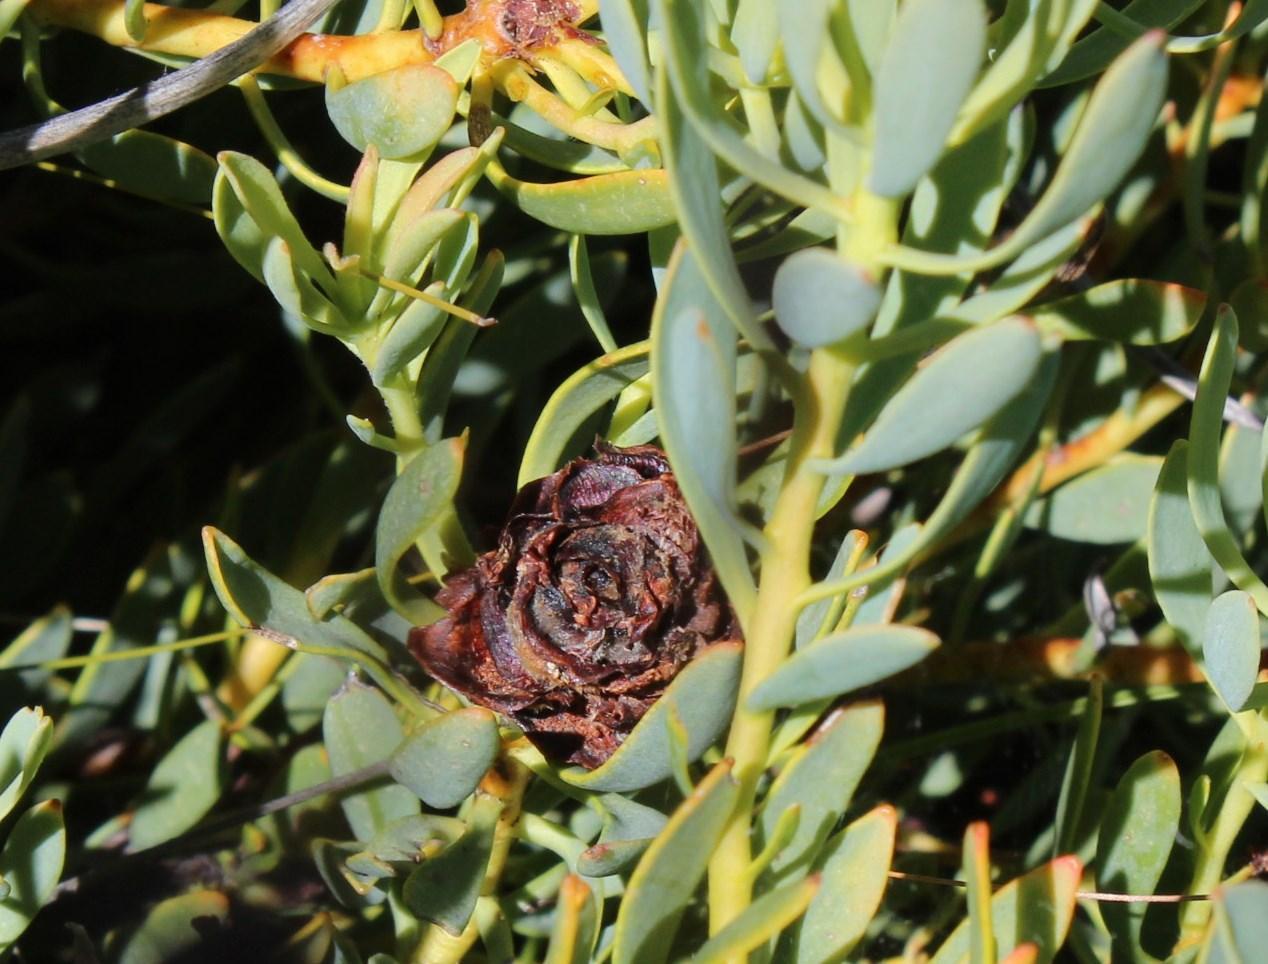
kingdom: Plantae
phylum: Tracheophyta
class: Magnoliopsida
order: Proteales
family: Proteaceae
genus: Leucadendron
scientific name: Leucadendron glaberrimum
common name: Common oily conebush
